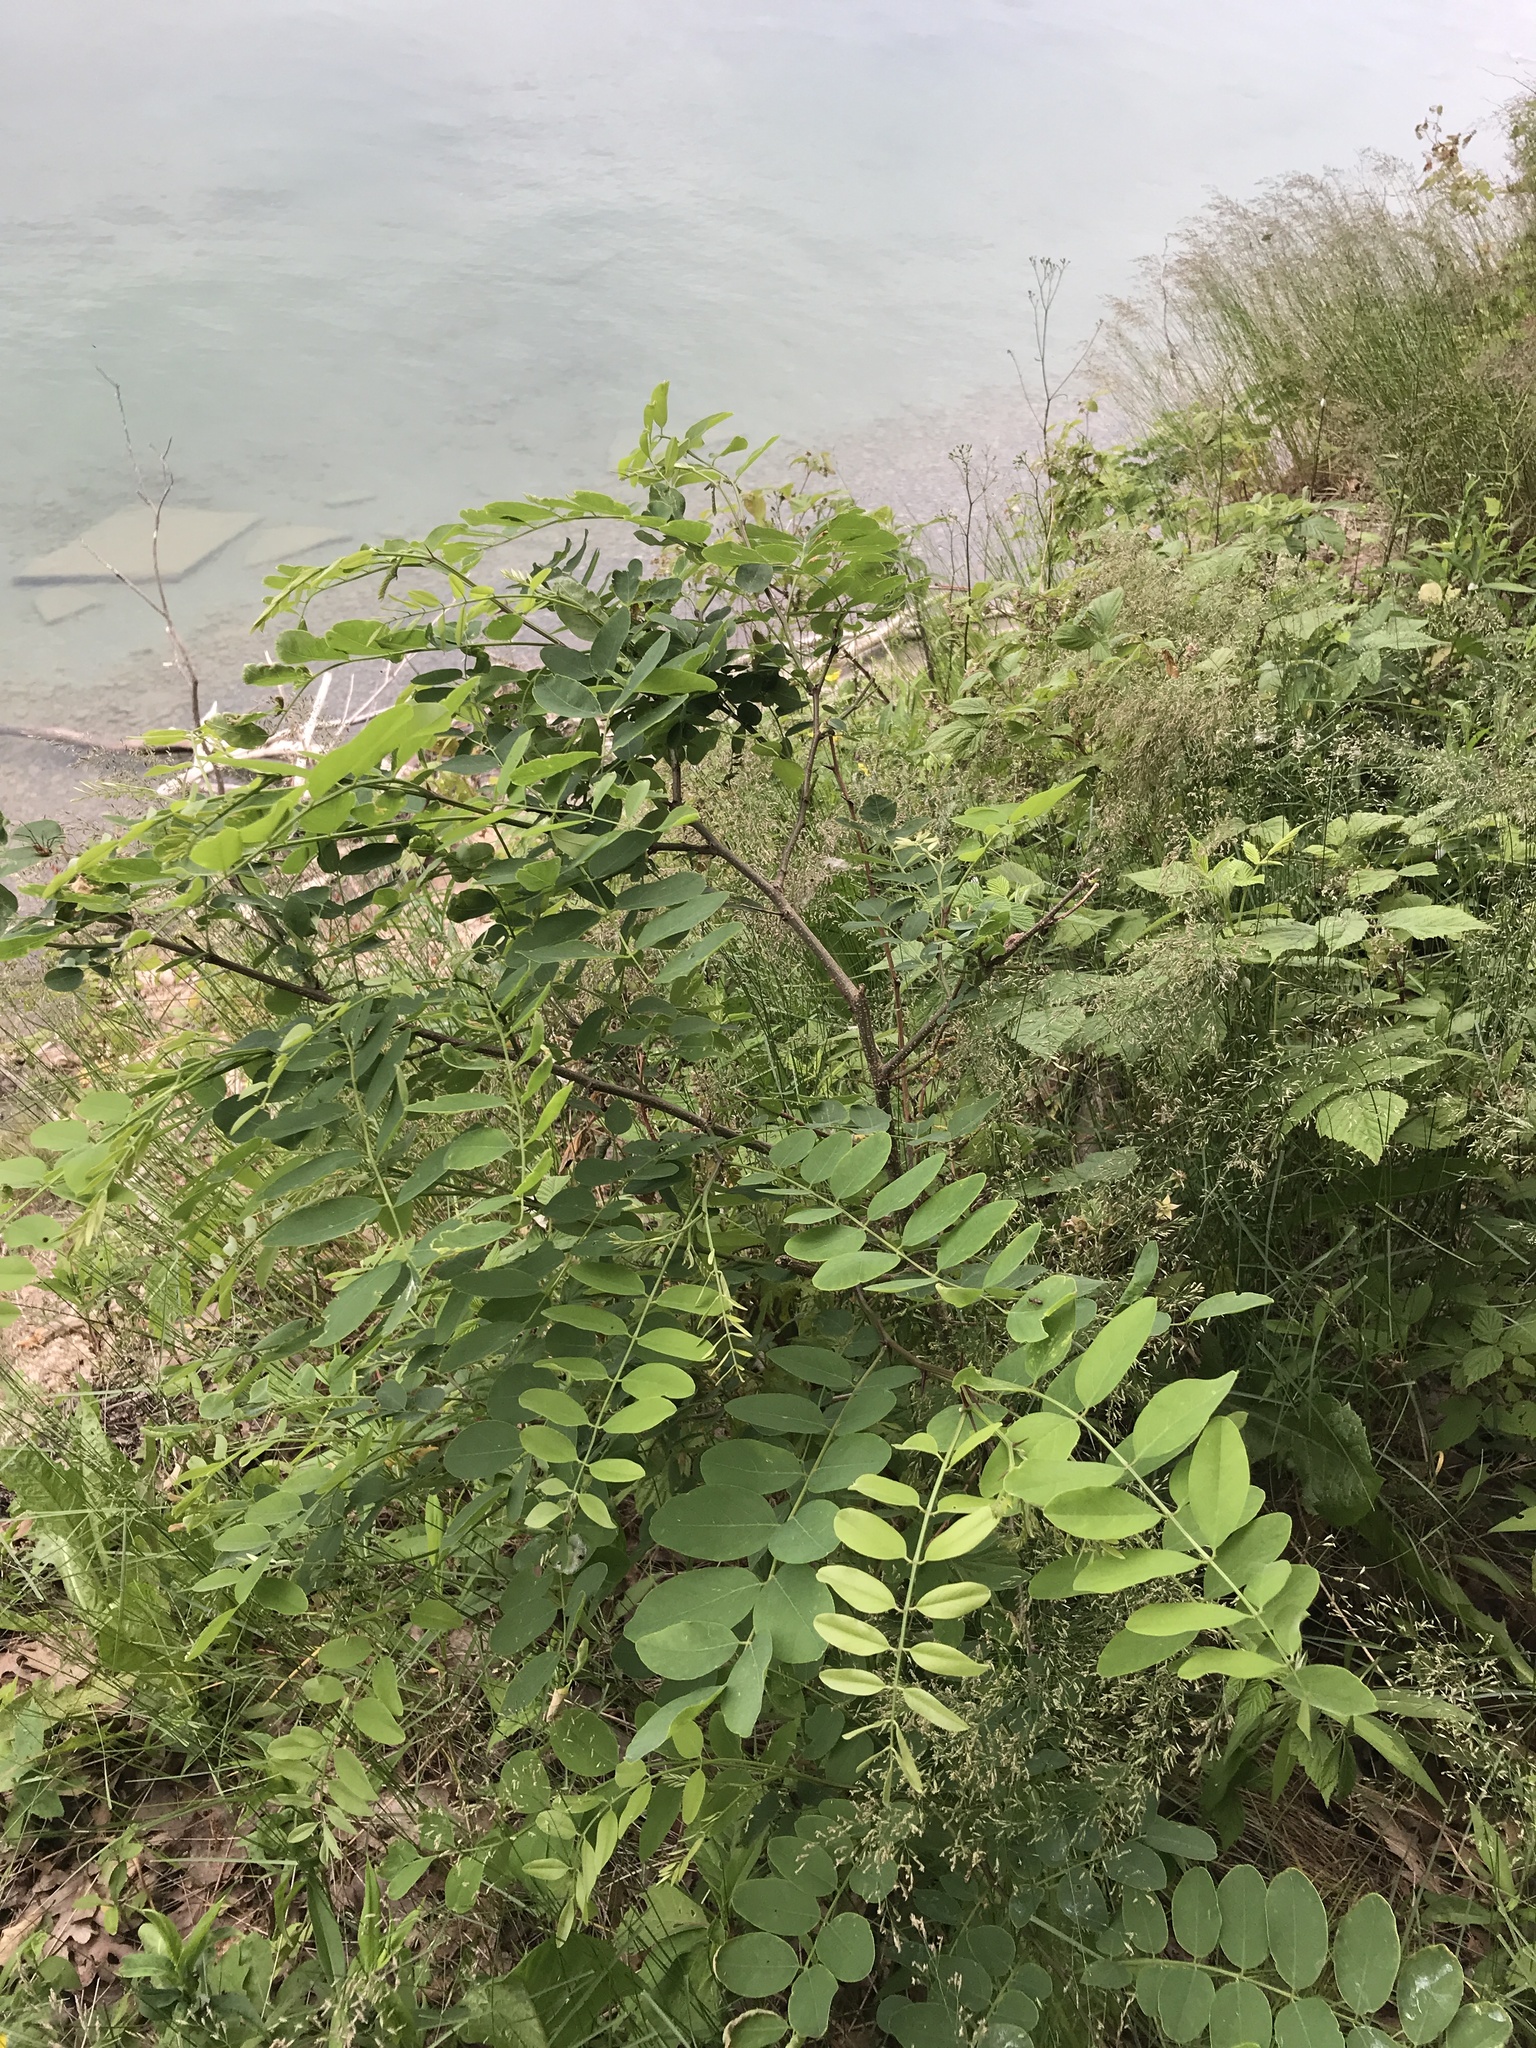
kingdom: Plantae
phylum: Tracheophyta
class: Magnoliopsida
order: Fabales
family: Fabaceae
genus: Robinia
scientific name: Robinia pseudoacacia
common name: Black locust
